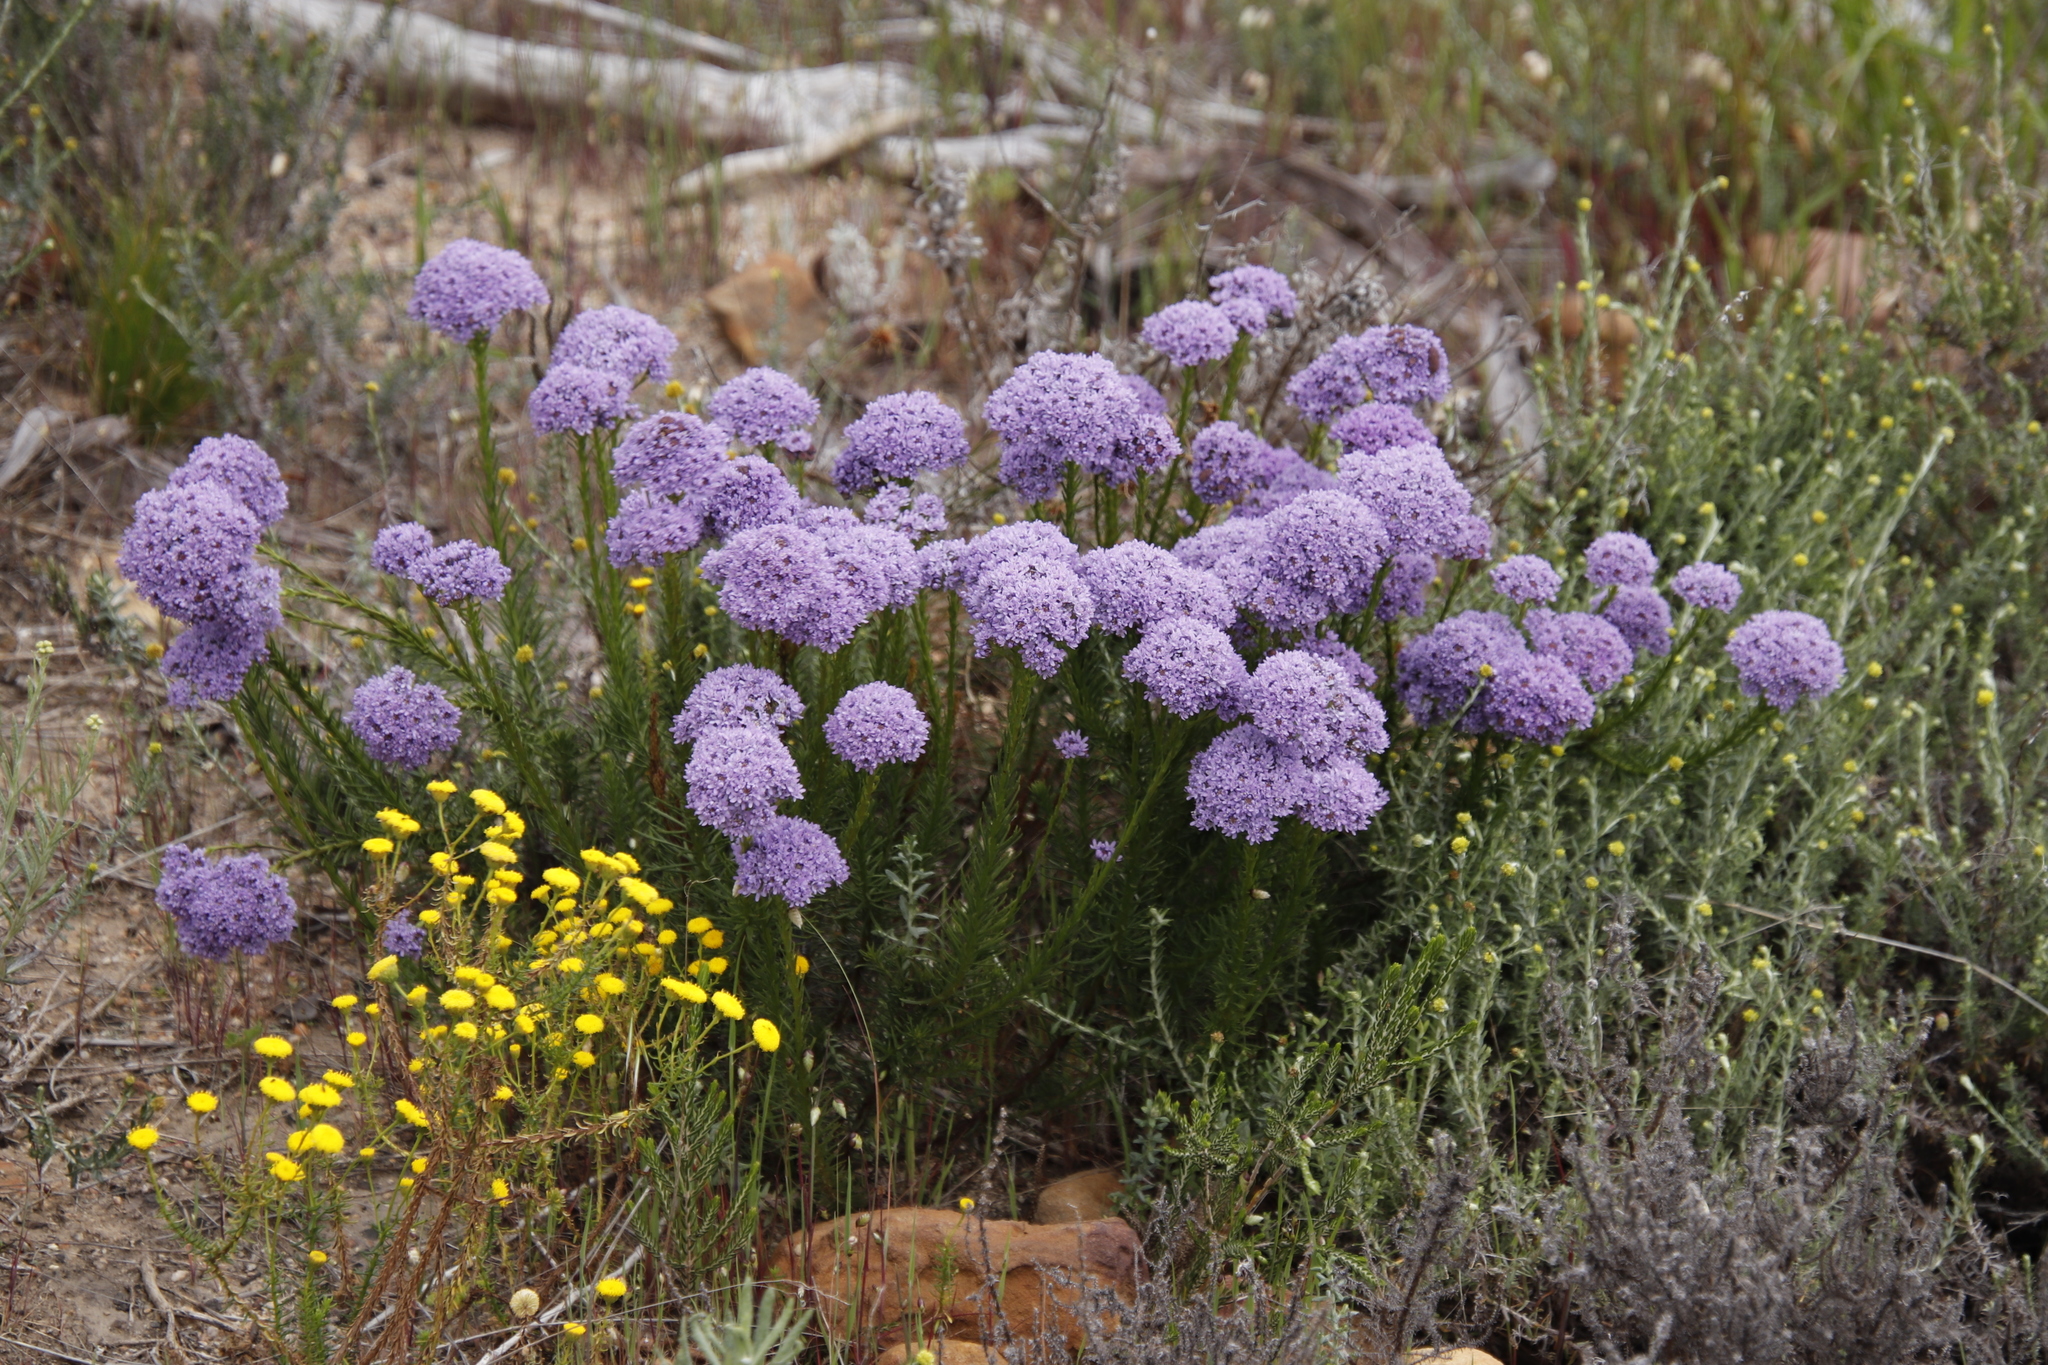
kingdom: Plantae
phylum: Tracheophyta
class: Magnoliopsida
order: Lamiales
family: Scrophulariaceae
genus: Pseudoselago
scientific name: Pseudoselago spuria
